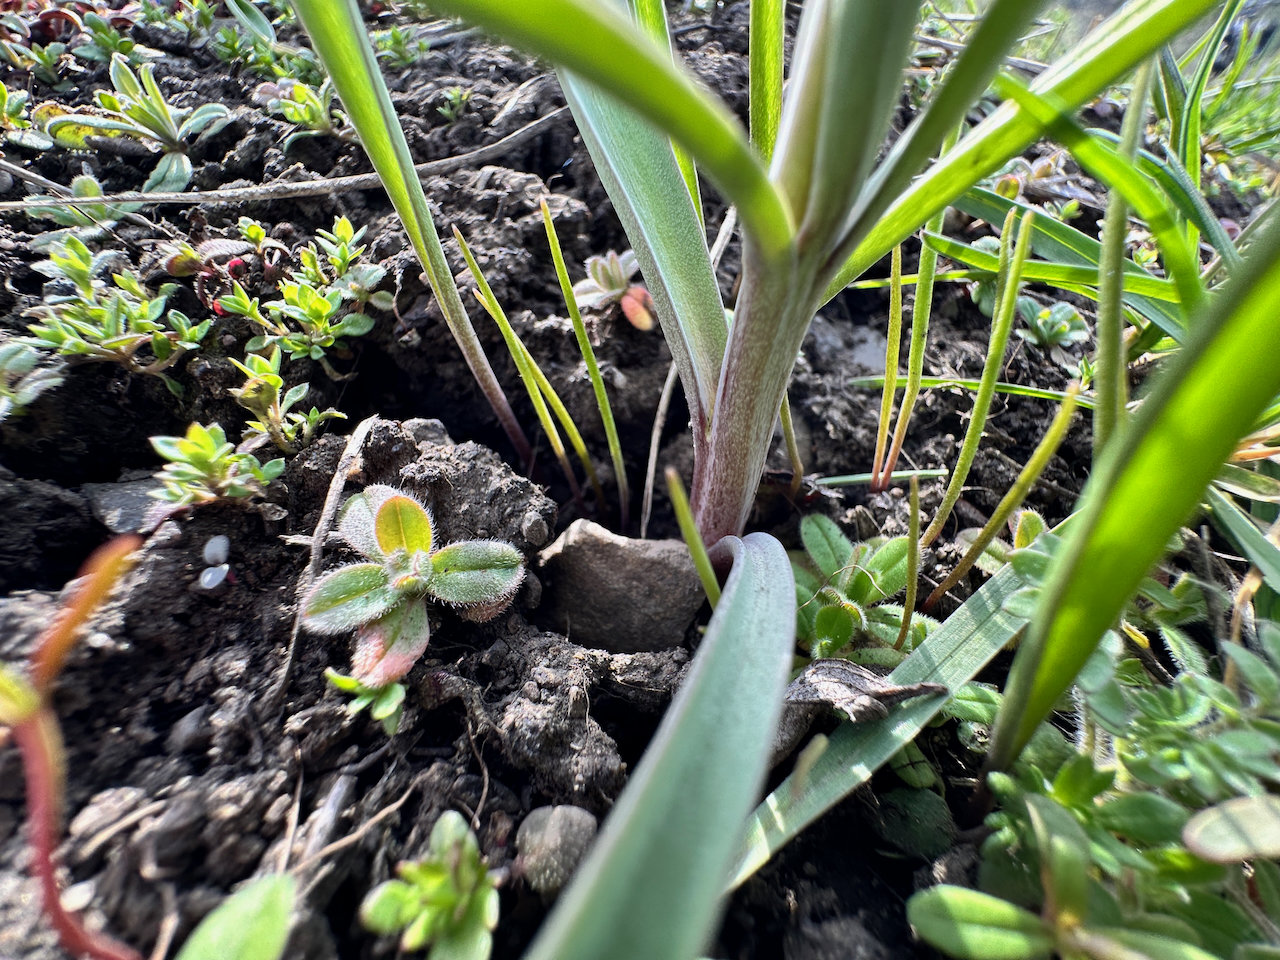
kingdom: Plantae
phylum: Tracheophyta
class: Liliopsida
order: Liliales
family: Liliaceae
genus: Fritillaria
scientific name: Fritillaria pudica
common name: Yellow fritillary
